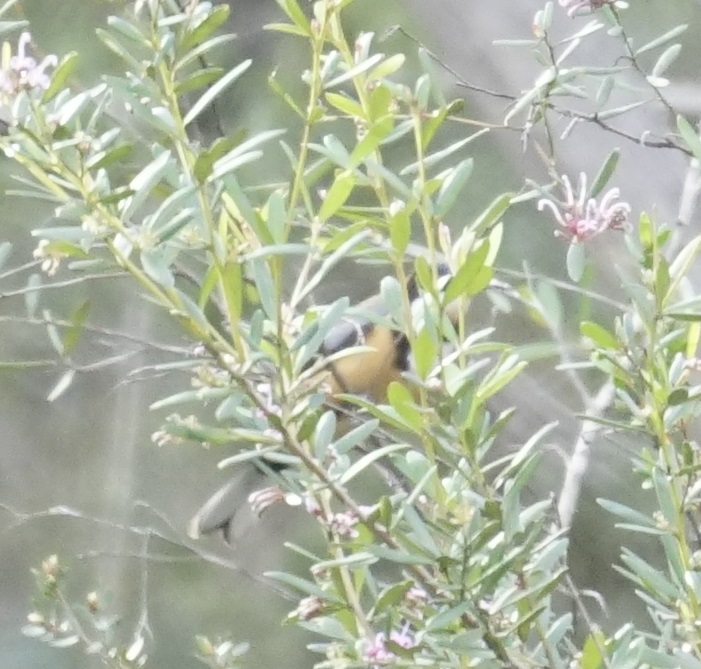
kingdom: Animalia
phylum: Chordata
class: Aves
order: Passeriformes
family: Meliphagidae
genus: Acanthorhynchus
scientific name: Acanthorhynchus tenuirostris
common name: Eastern spinebill
